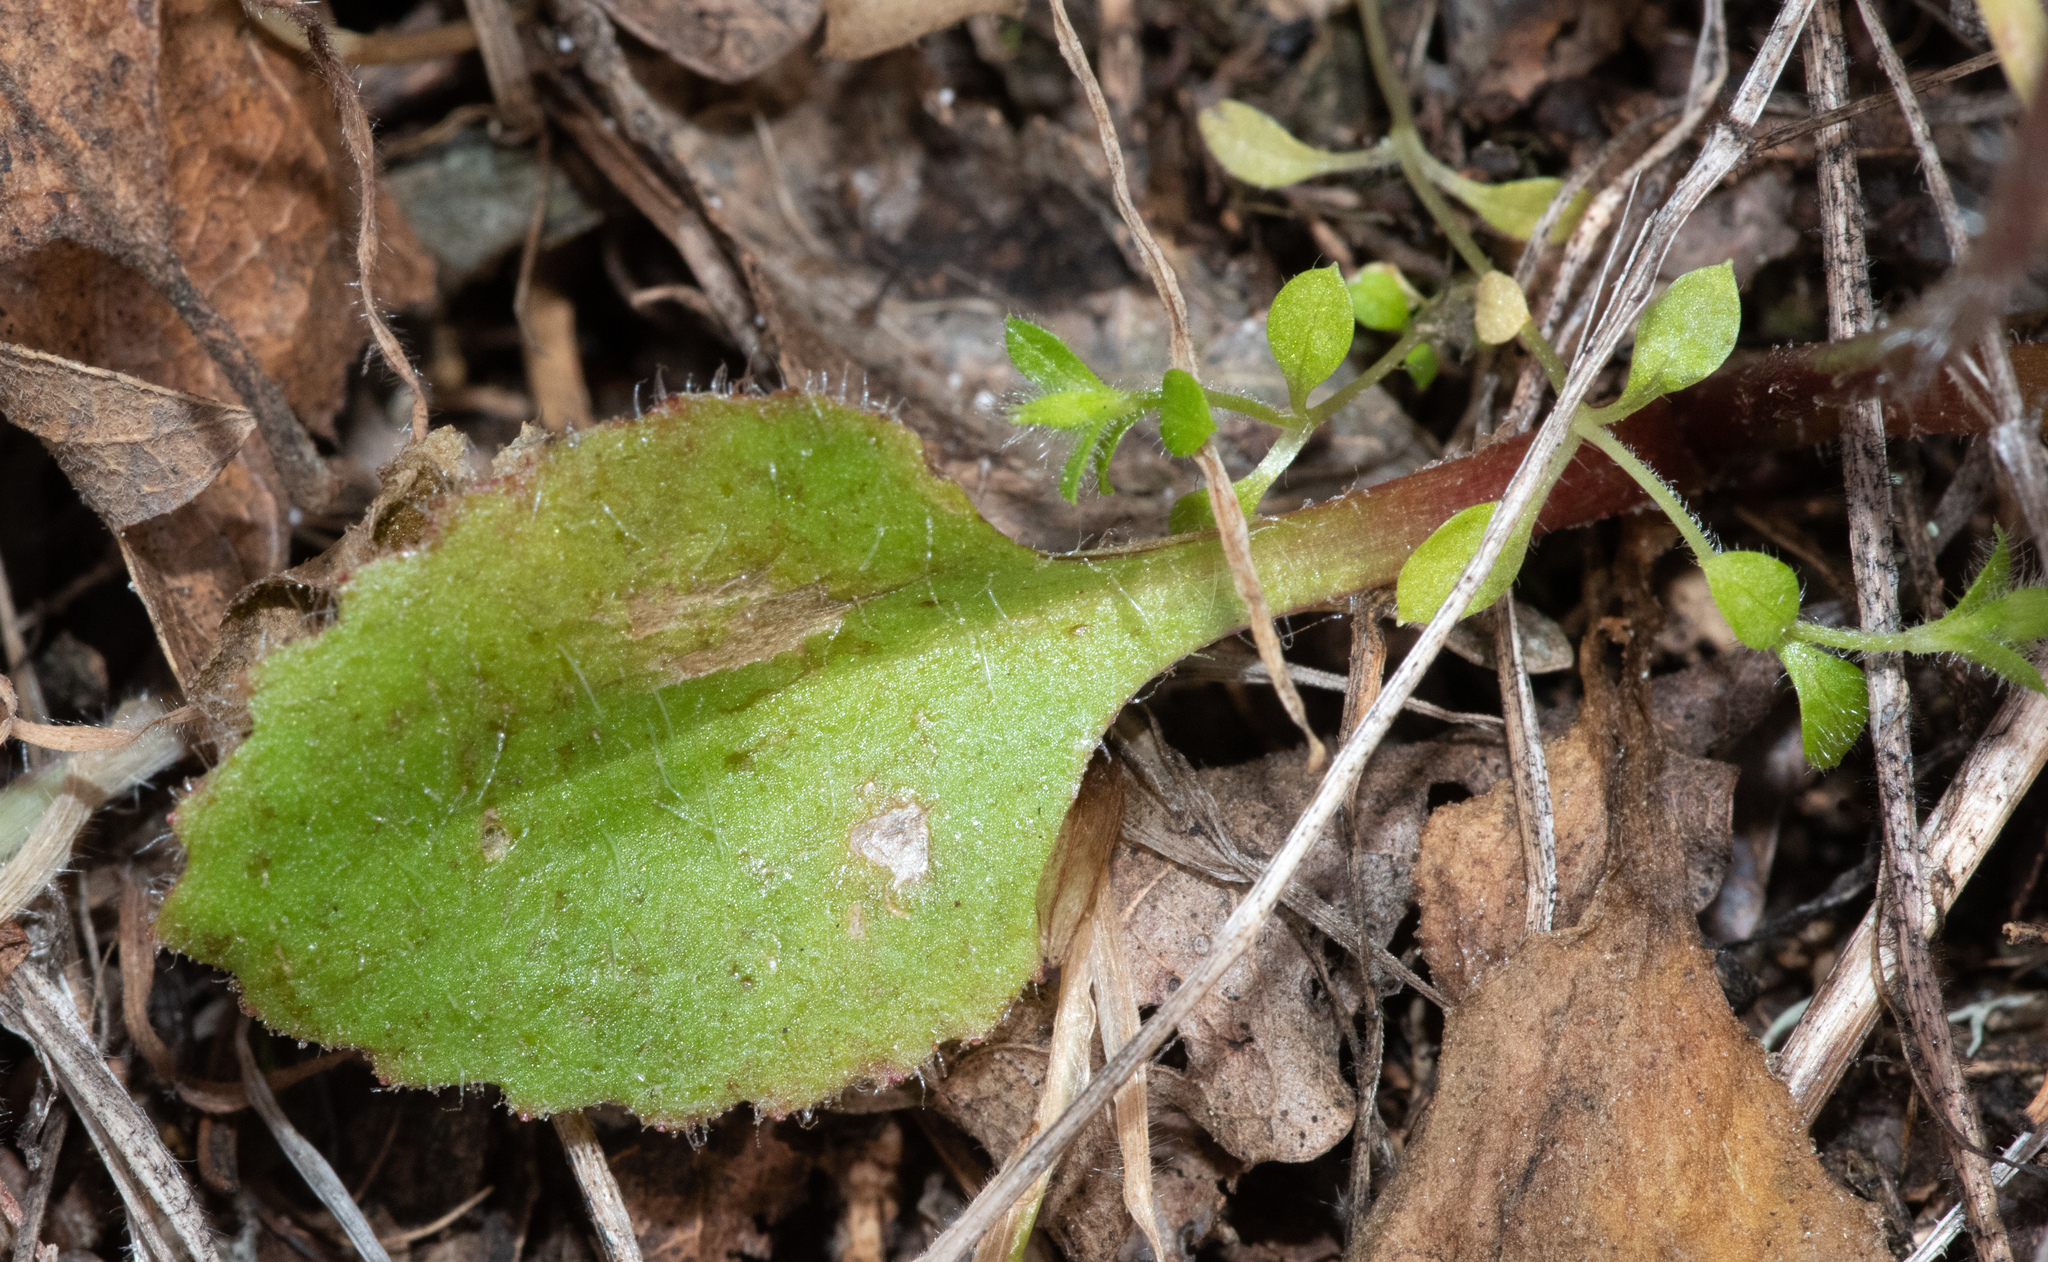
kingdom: Plantae
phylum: Tracheophyta
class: Magnoliopsida
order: Saxifragales
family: Saxifragaceae
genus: Micranthes
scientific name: Micranthes californica
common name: California saxifrage
